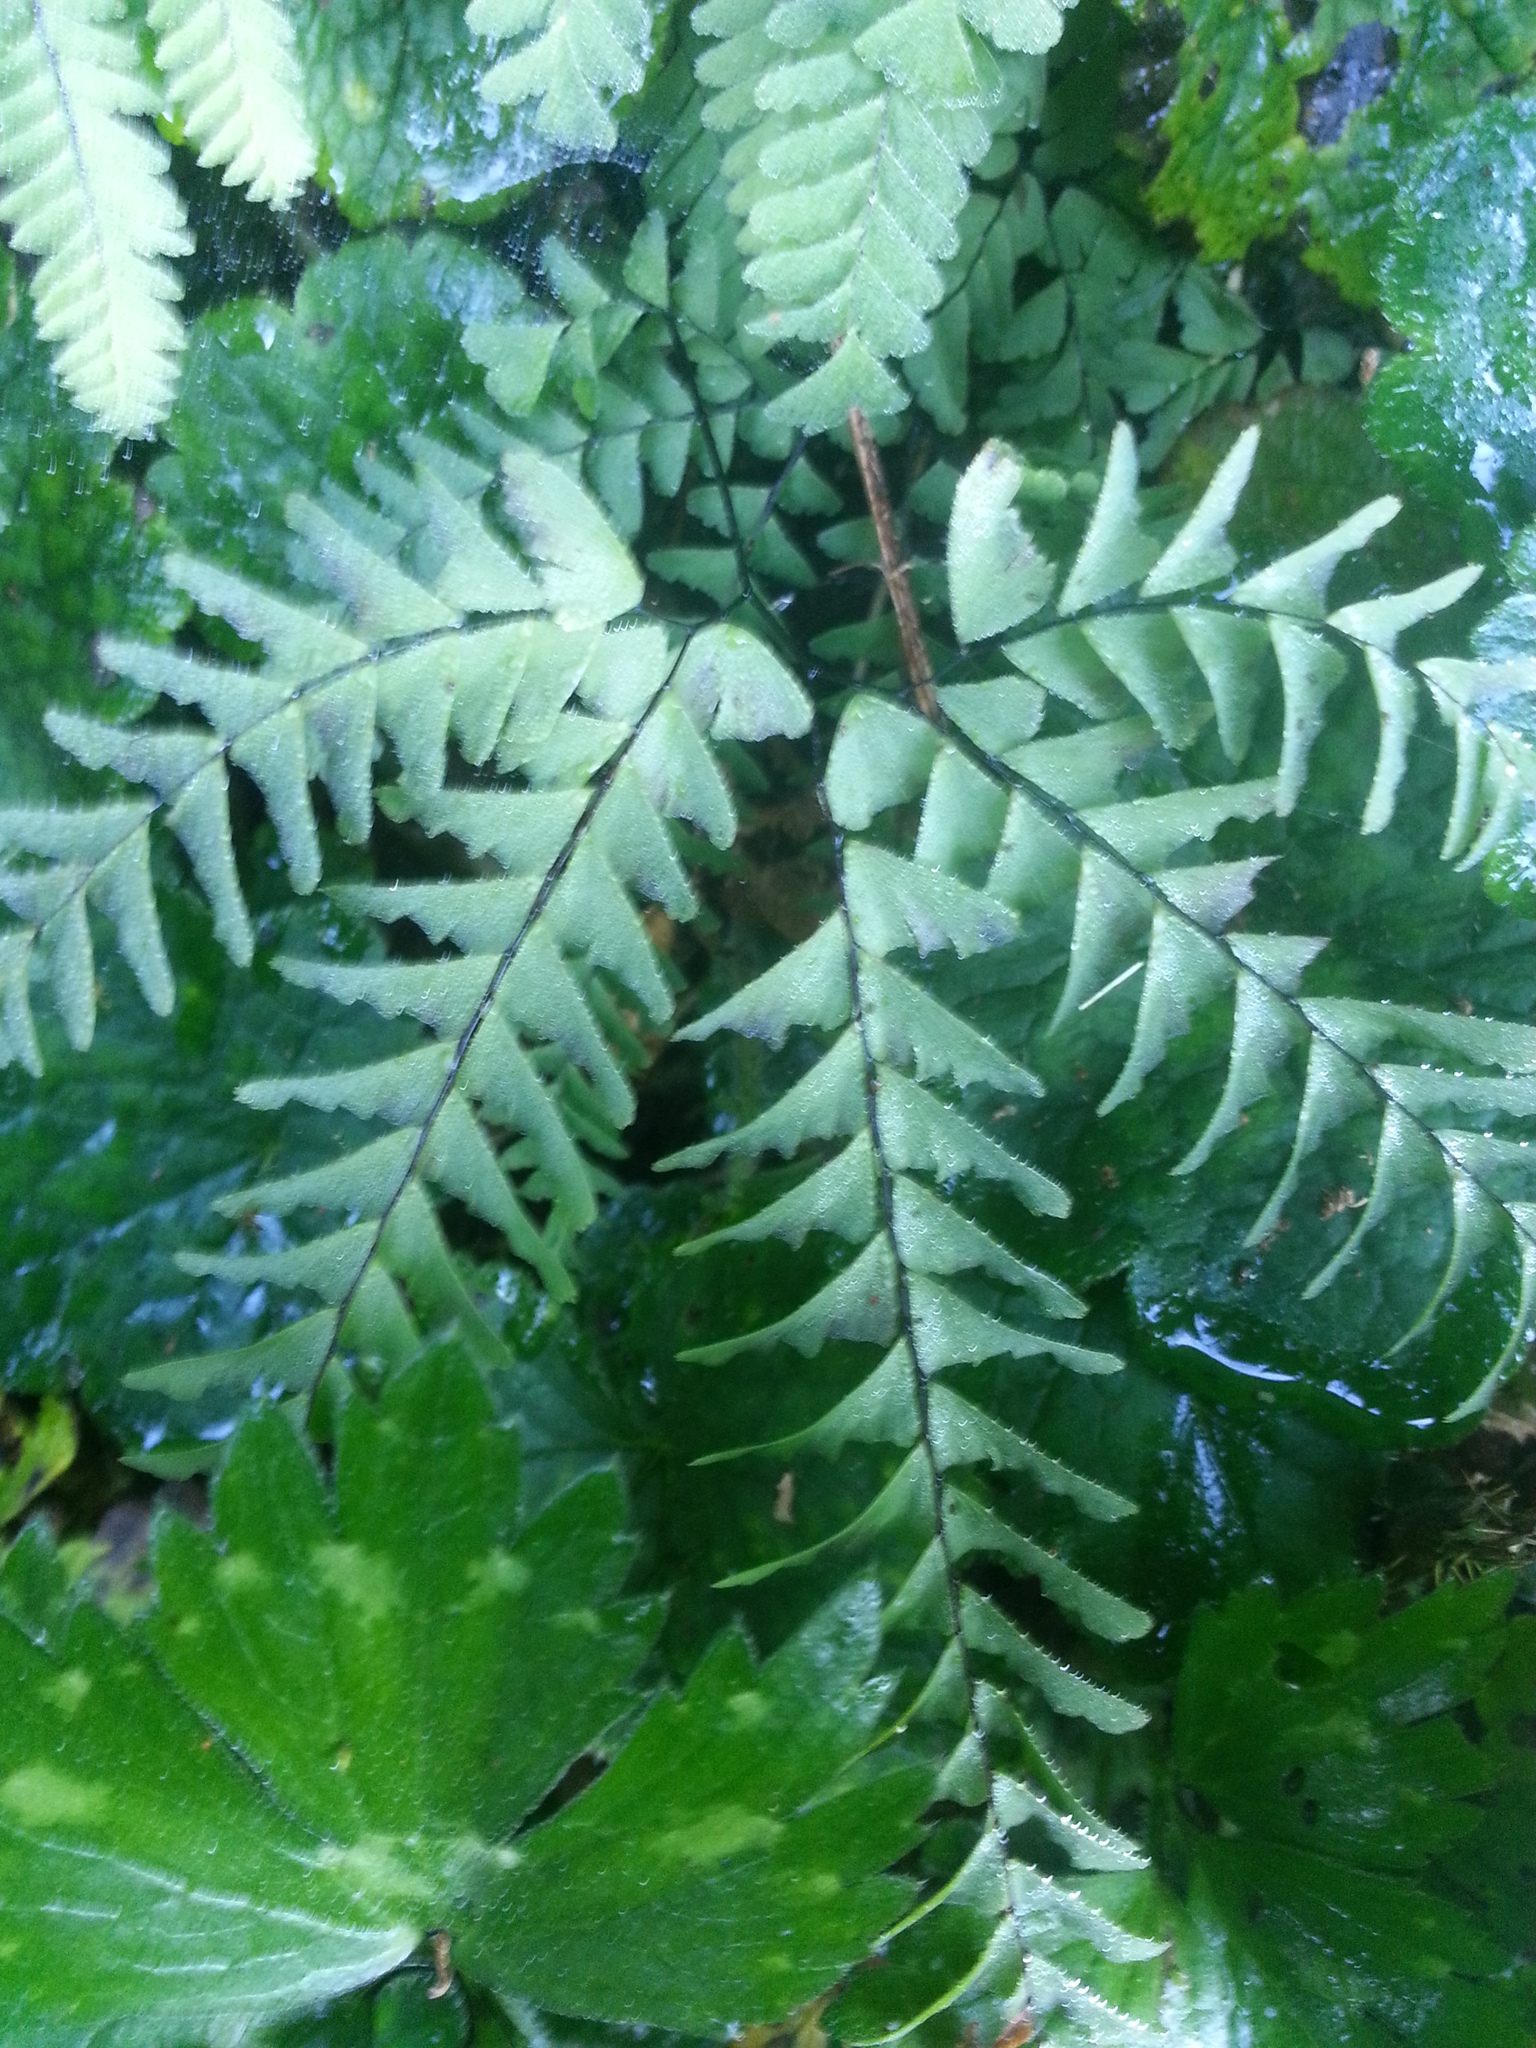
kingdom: Plantae
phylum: Tracheophyta
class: Polypodiopsida
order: Polypodiales
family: Pteridaceae
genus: Adiantum
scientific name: Adiantum aleuticum
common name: Aleutian maidenhair fern
